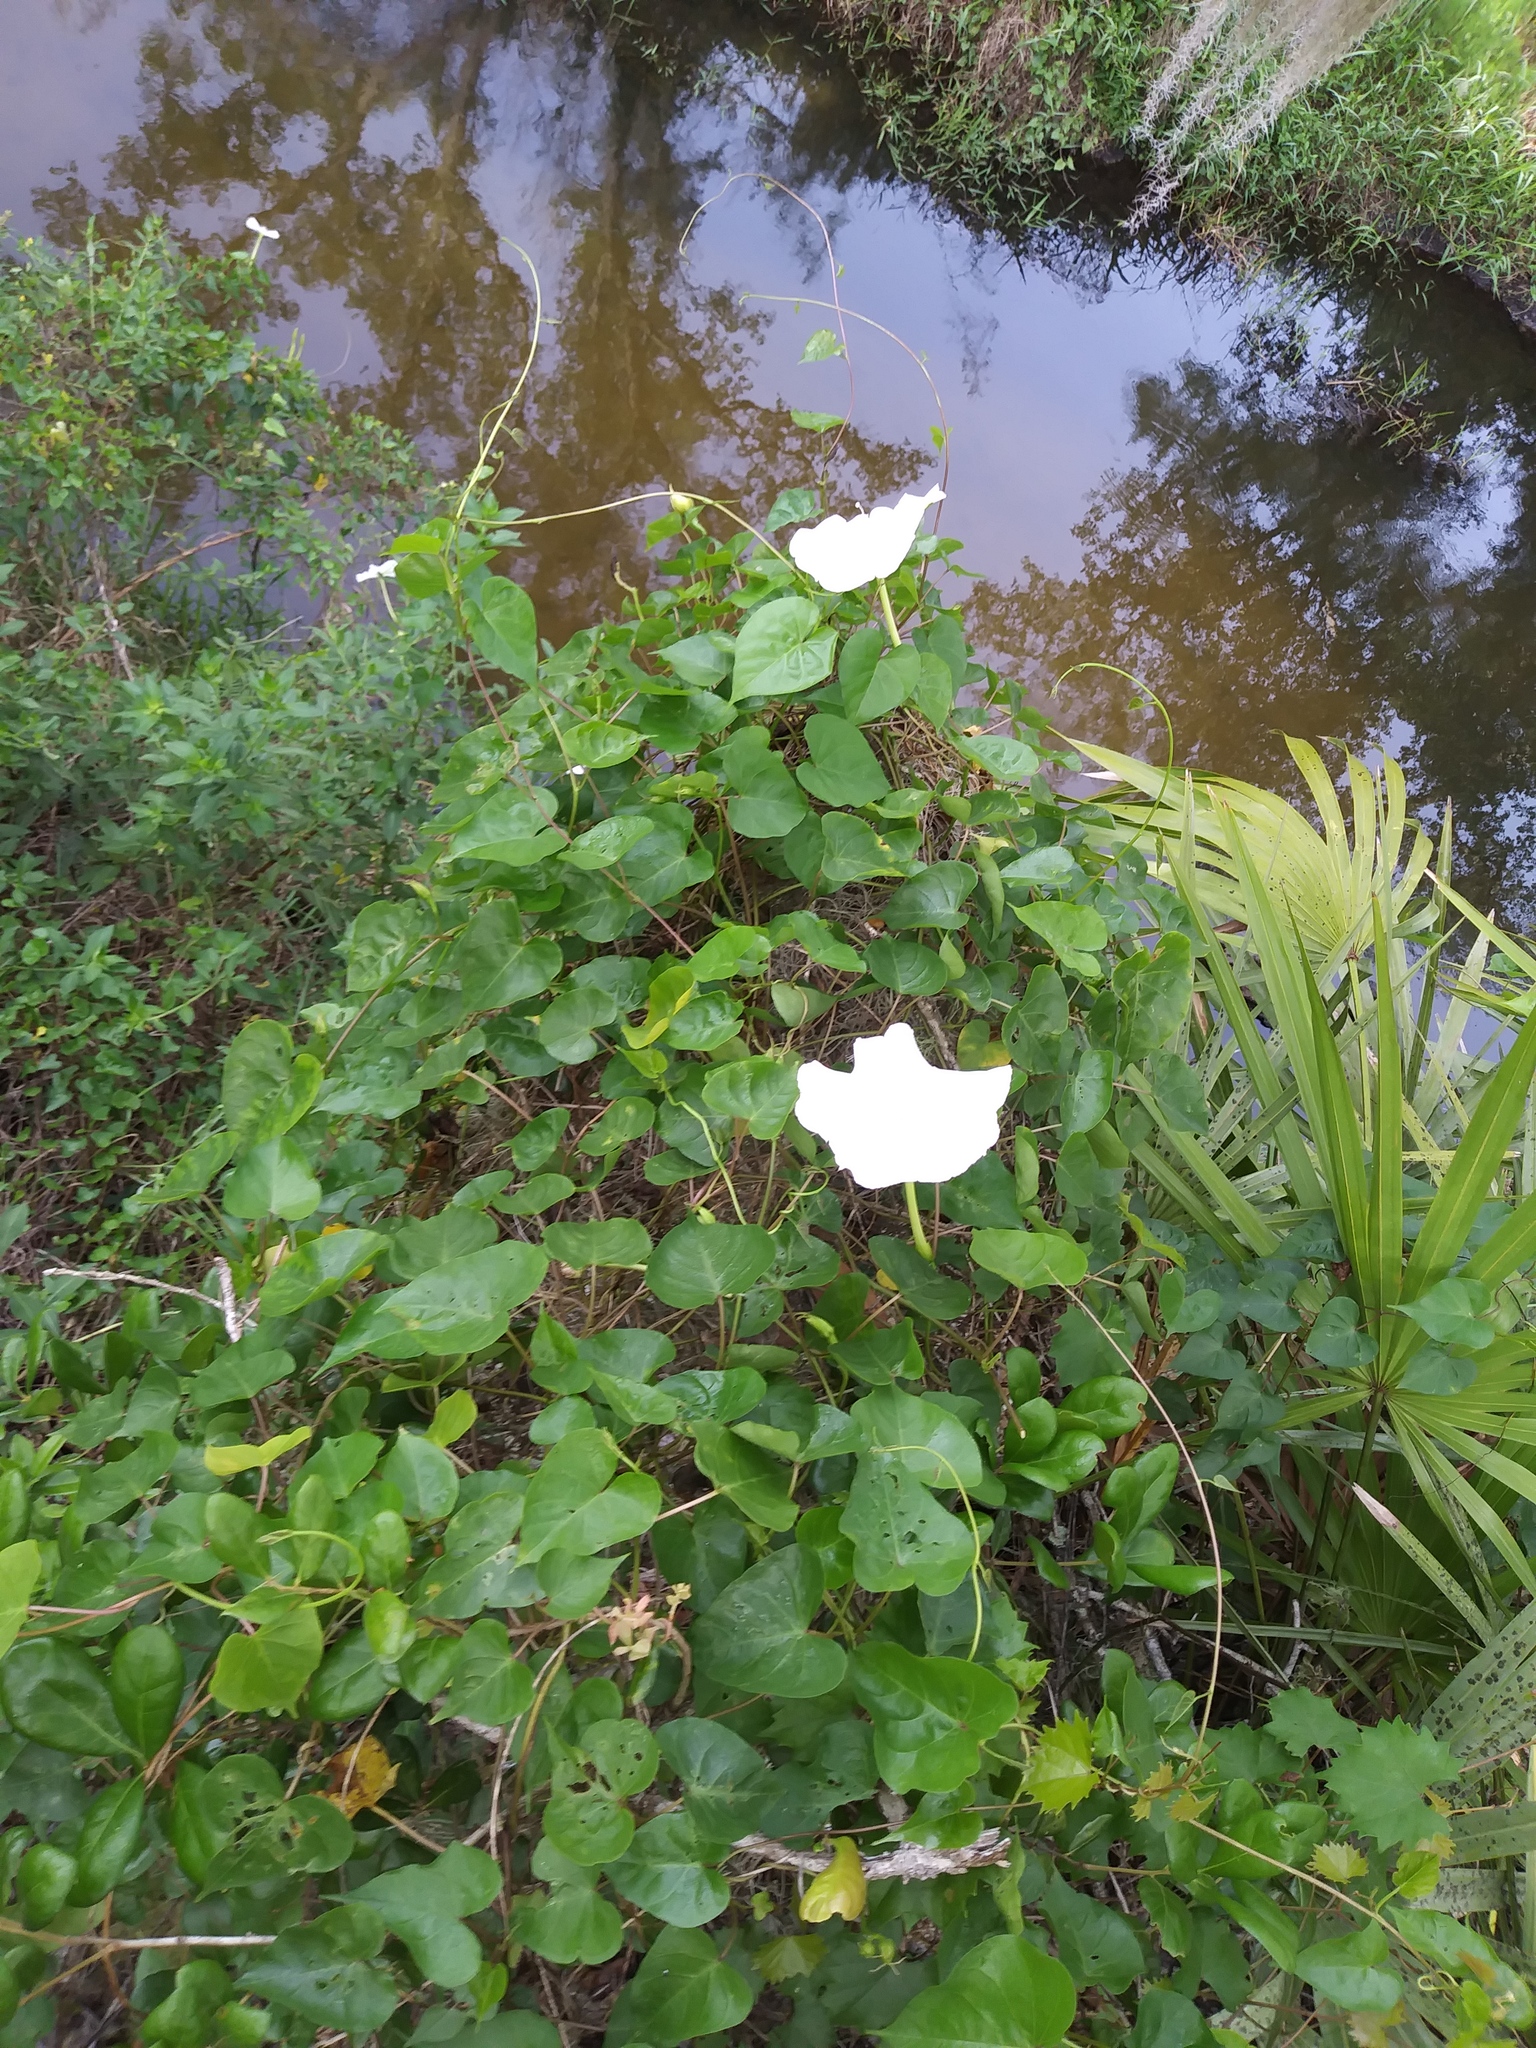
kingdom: Plantae
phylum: Tracheophyta
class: Magnoliopsida
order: Solanales
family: Convolvulaceae
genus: Ipomoea
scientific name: Ipomoea alba
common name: Moonflower
